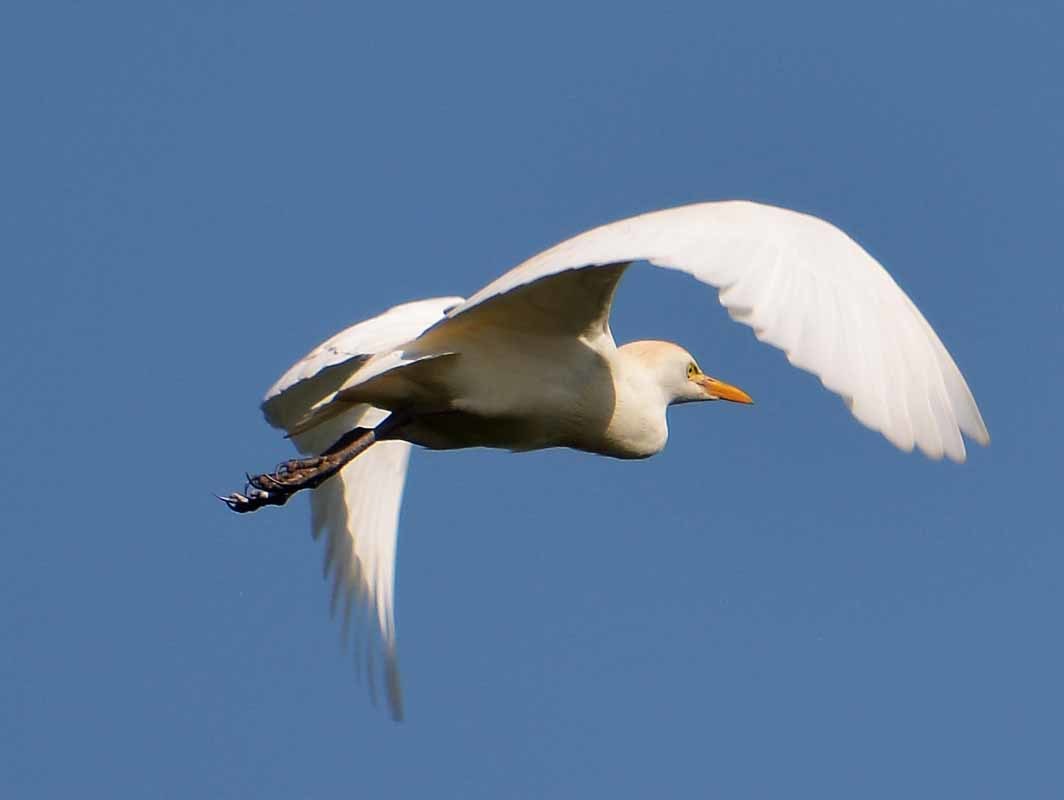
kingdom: Animalia
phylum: Chordata
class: Aves
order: Pelecaniformes
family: Ardeidae
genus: Bubulcus
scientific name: Bubulcus ibis
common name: Cattle egret
